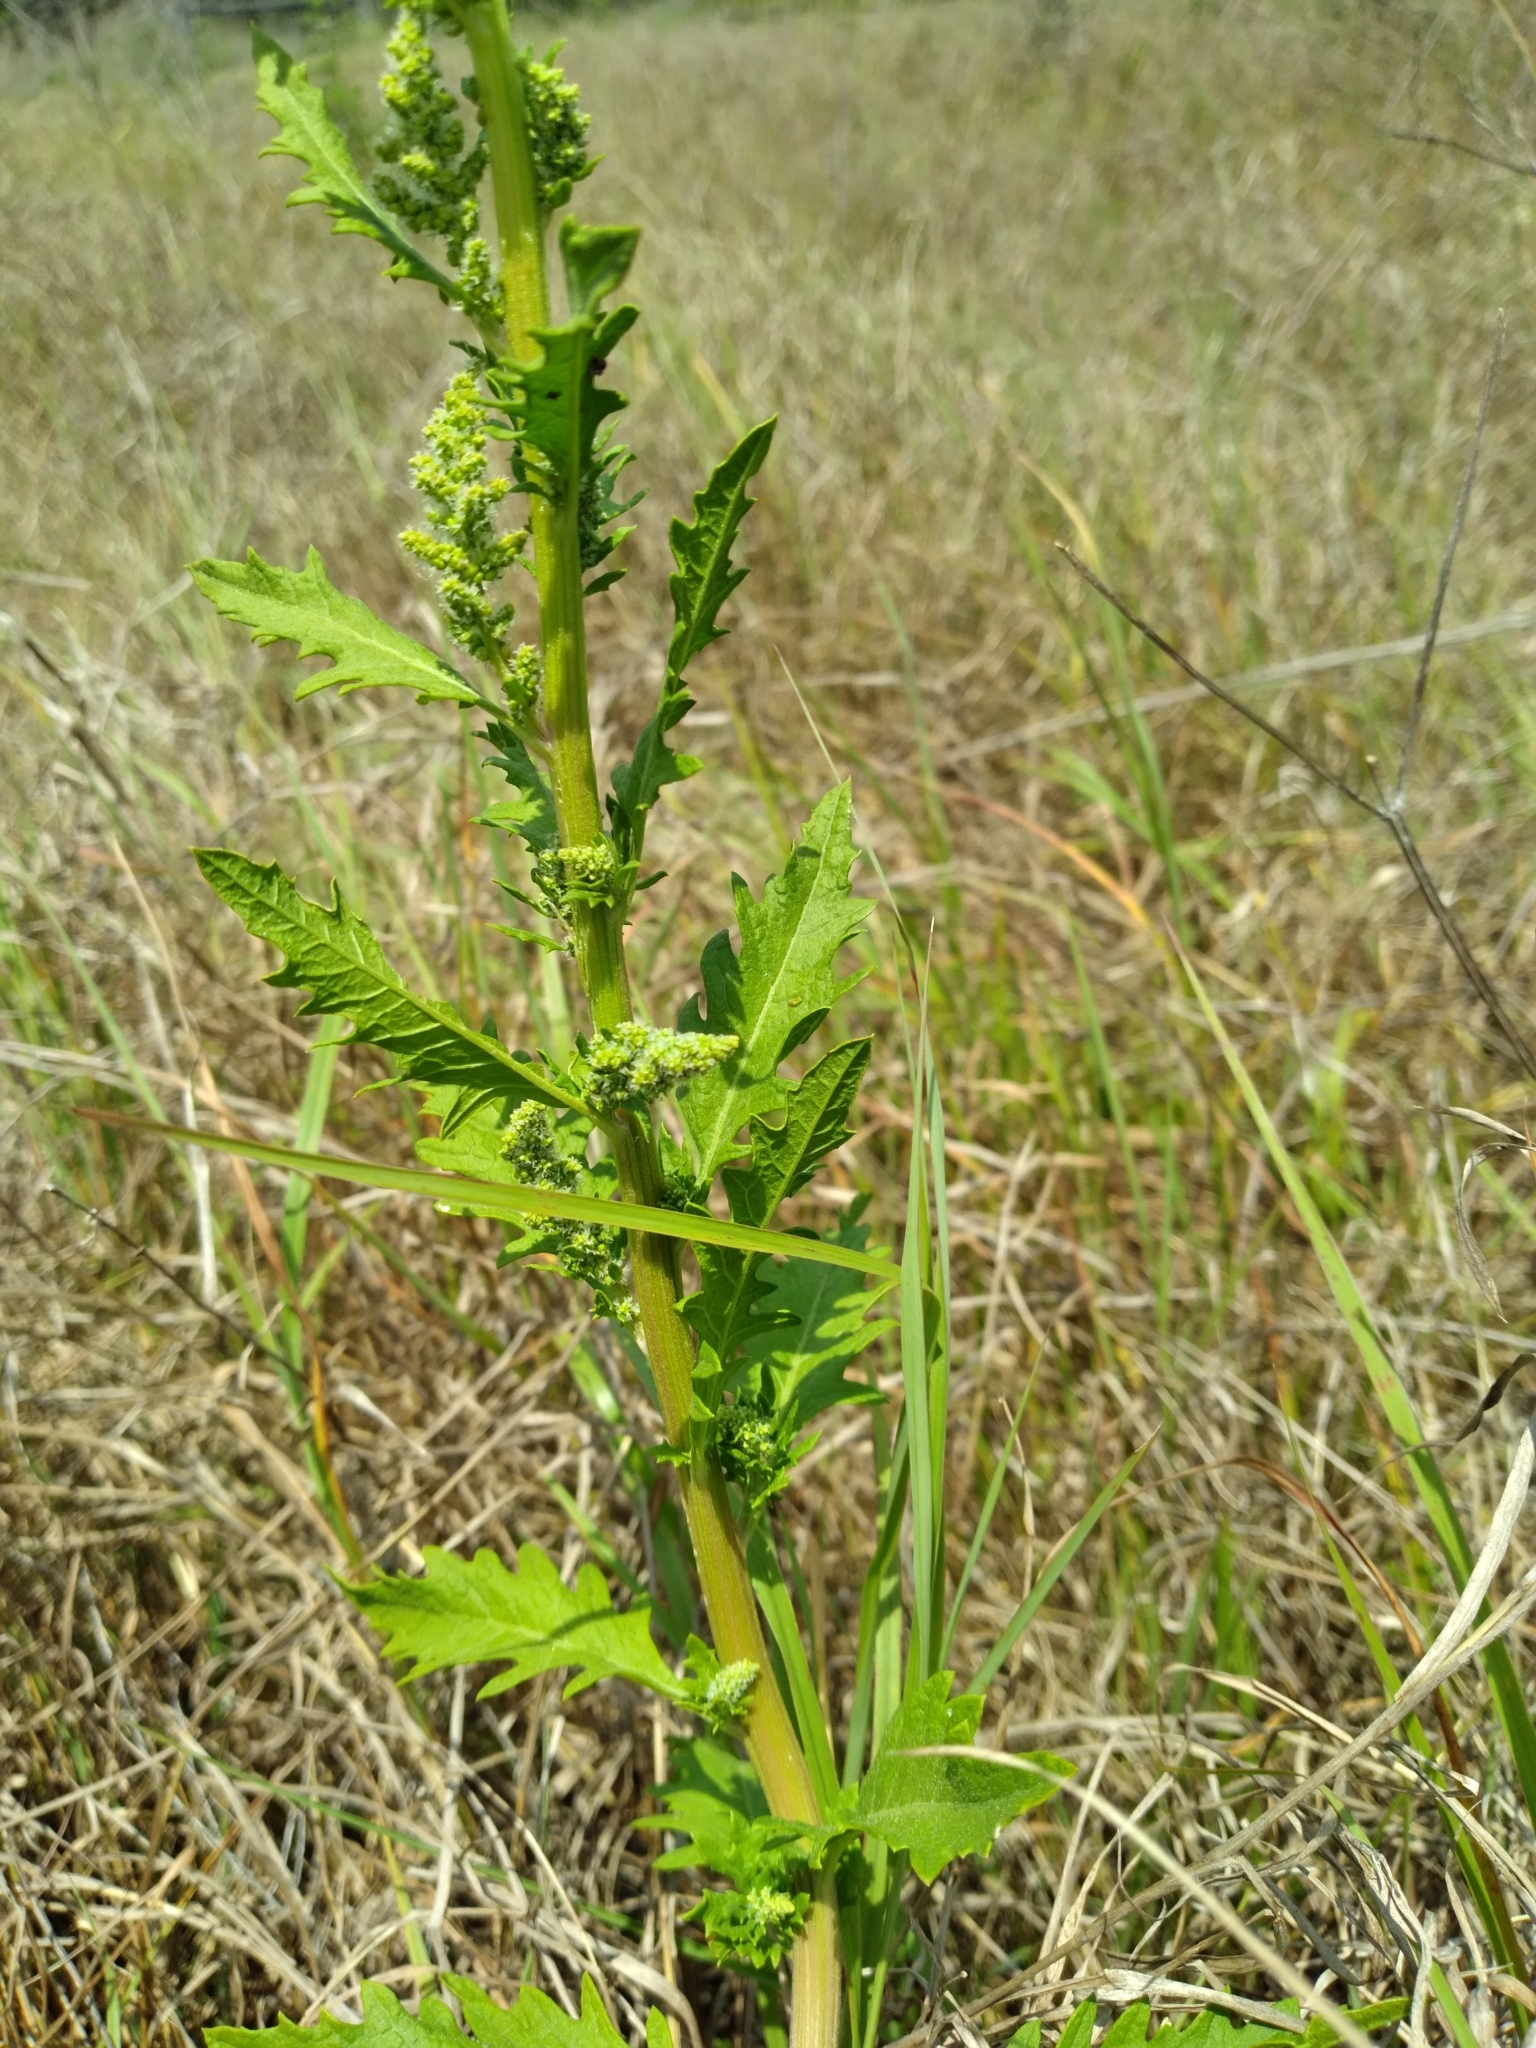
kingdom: Plantae
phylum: Tracheophyta
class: Magnoliopsida
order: Caryophyllales
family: Amaranthaceae
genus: Dysphania
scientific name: Dysphania ambrosioides
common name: Wormseed
